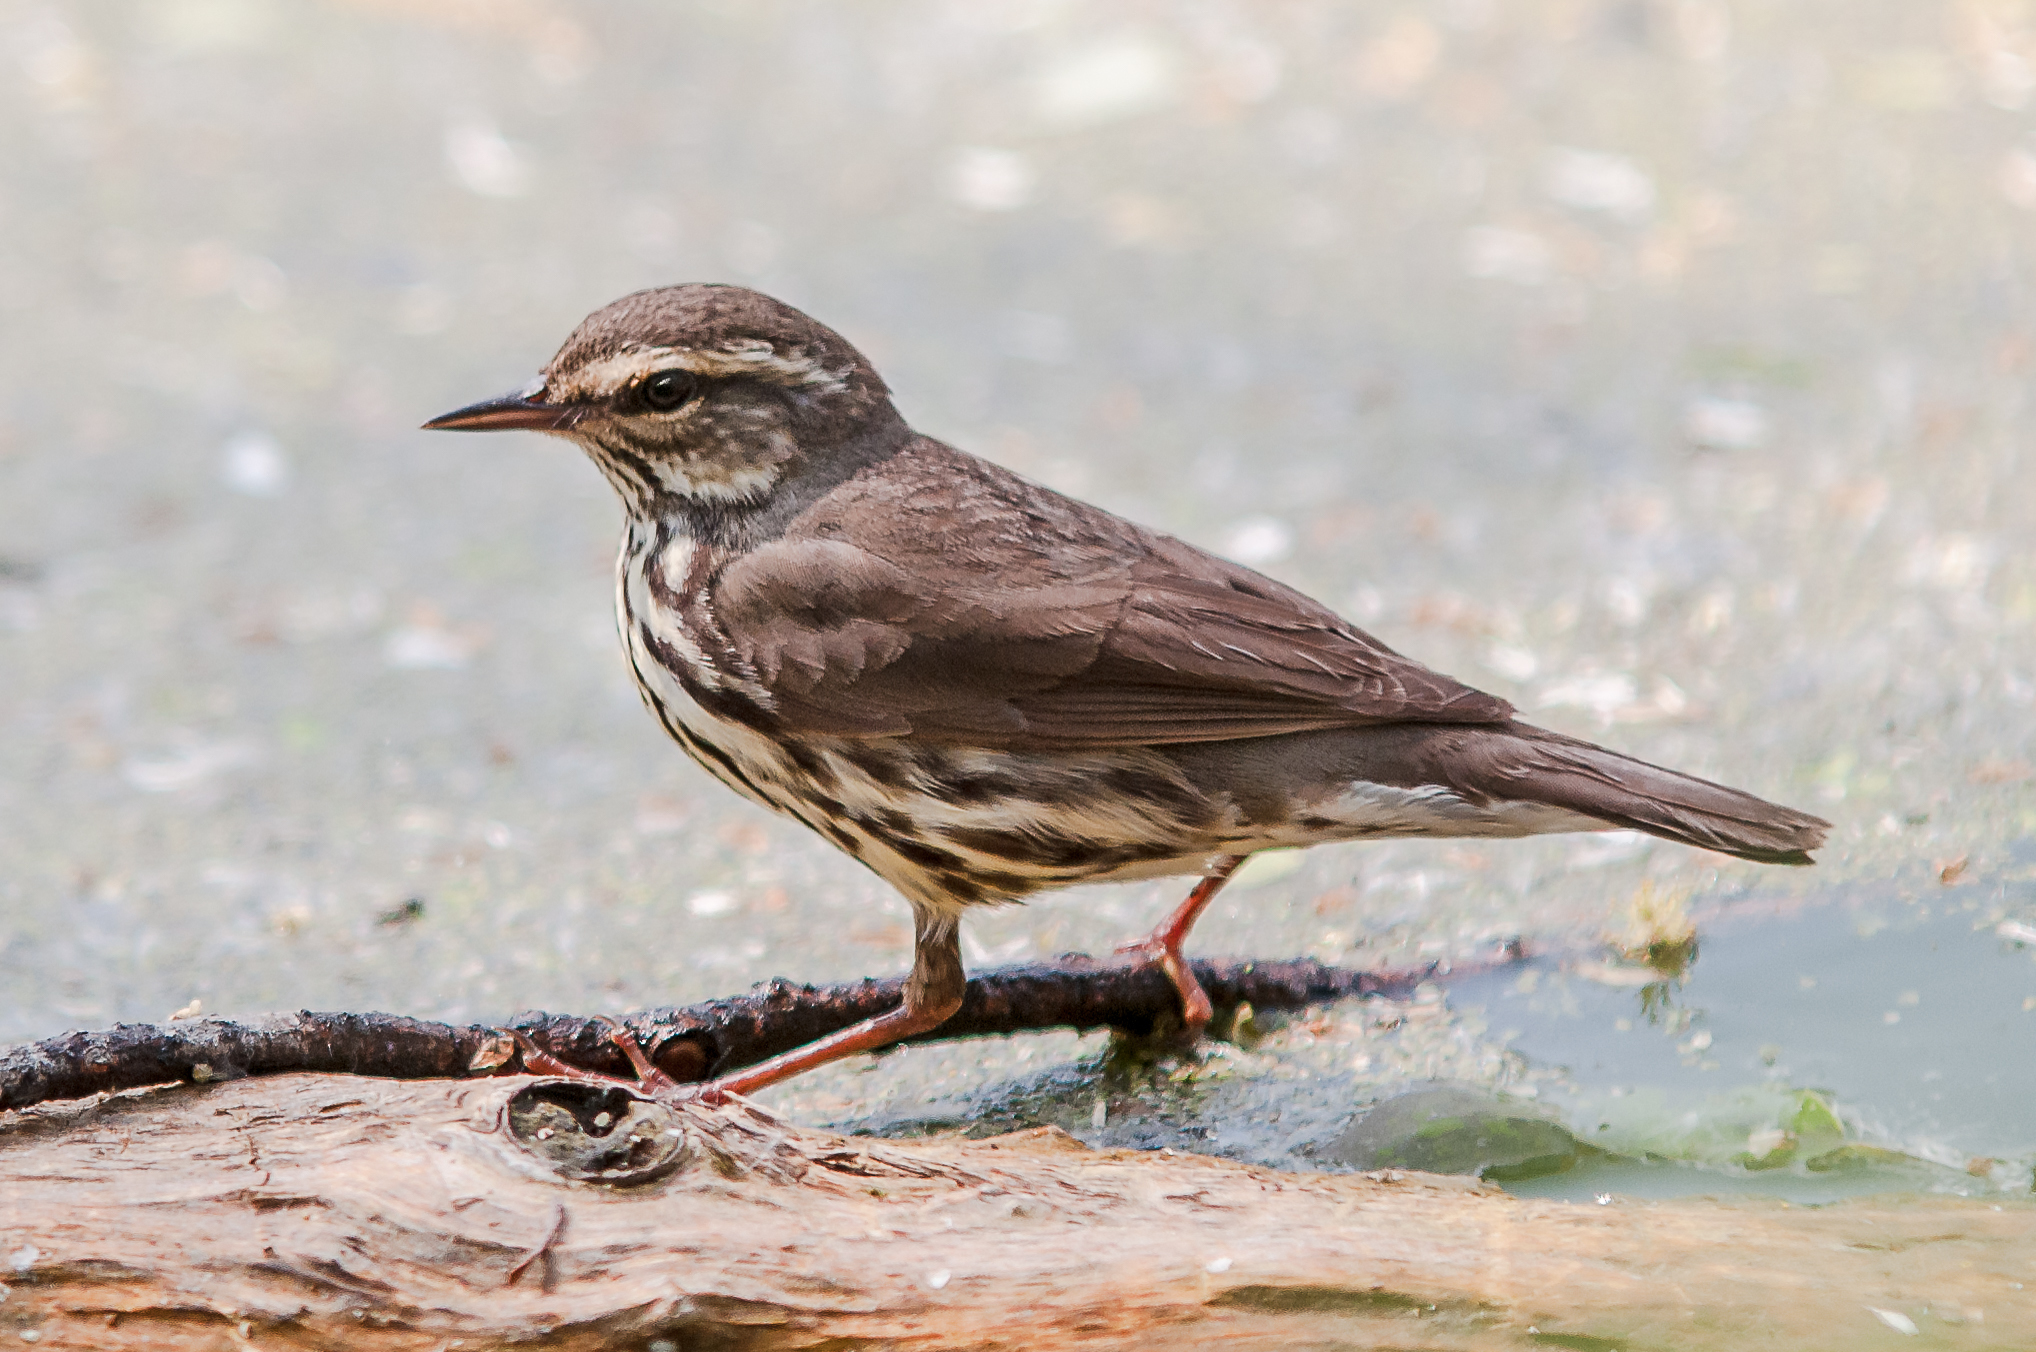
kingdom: Animalia
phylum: Chordata
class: Aves
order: Passeriformes
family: Parulidae
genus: Parkesia
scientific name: Parkesia noveboracensis
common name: Northern waterthrush
